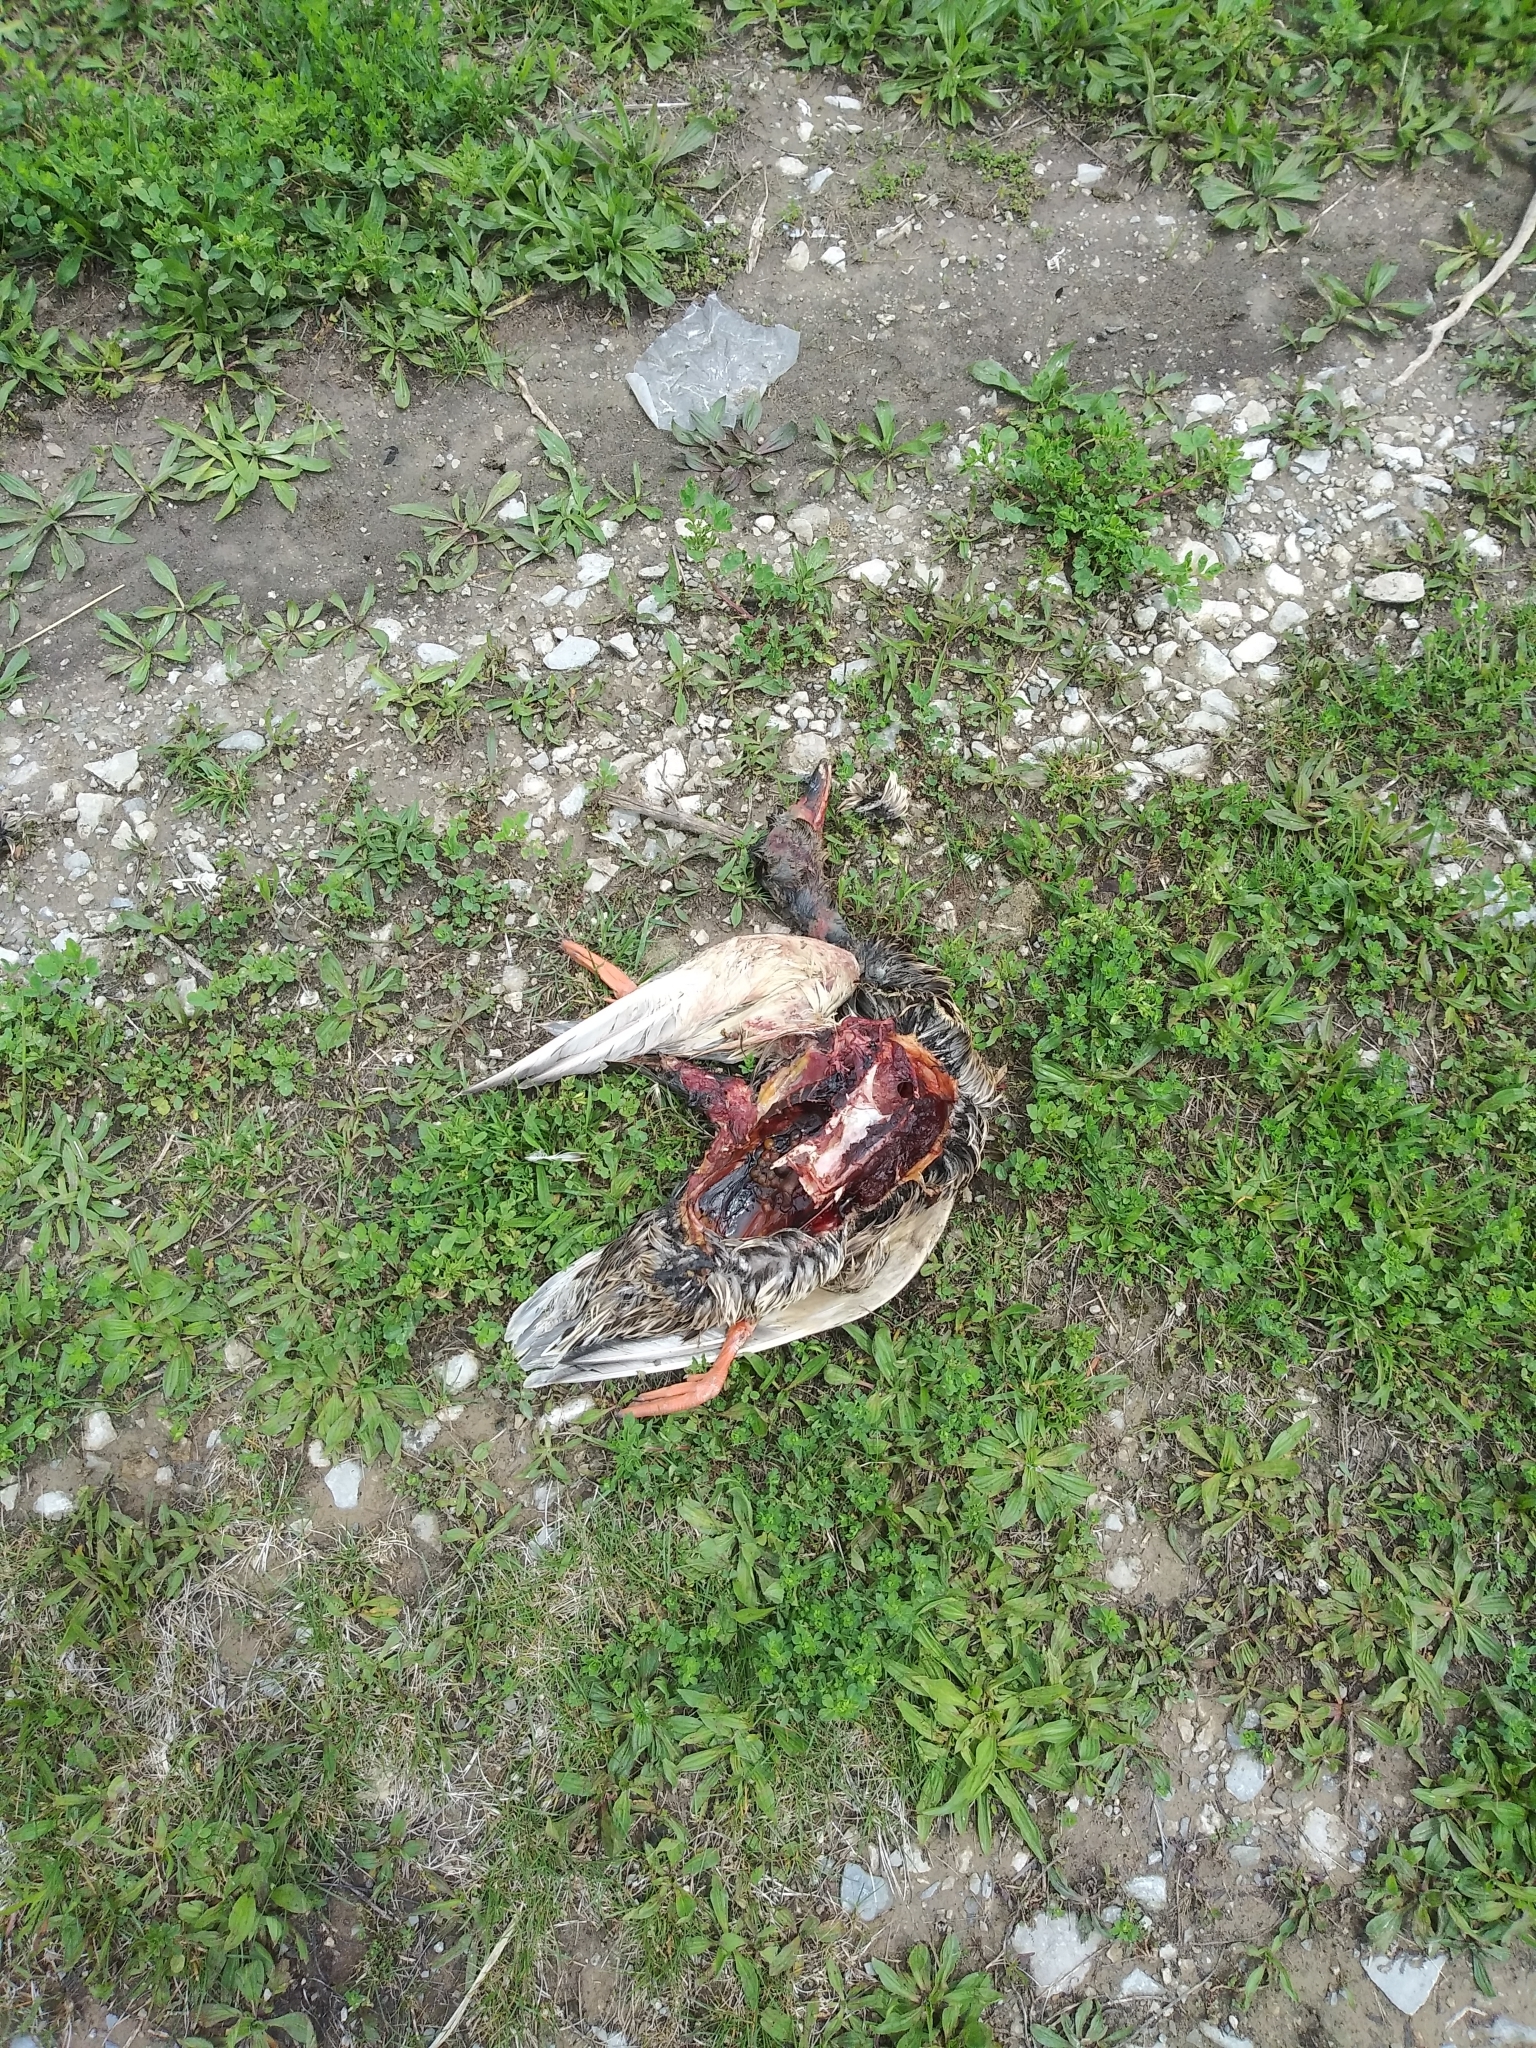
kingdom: Animalia
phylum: Chordata
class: Aves
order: Anseriformes
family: Anatidae
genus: Anas
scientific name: Anas platyrhynchos
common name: Mallard
